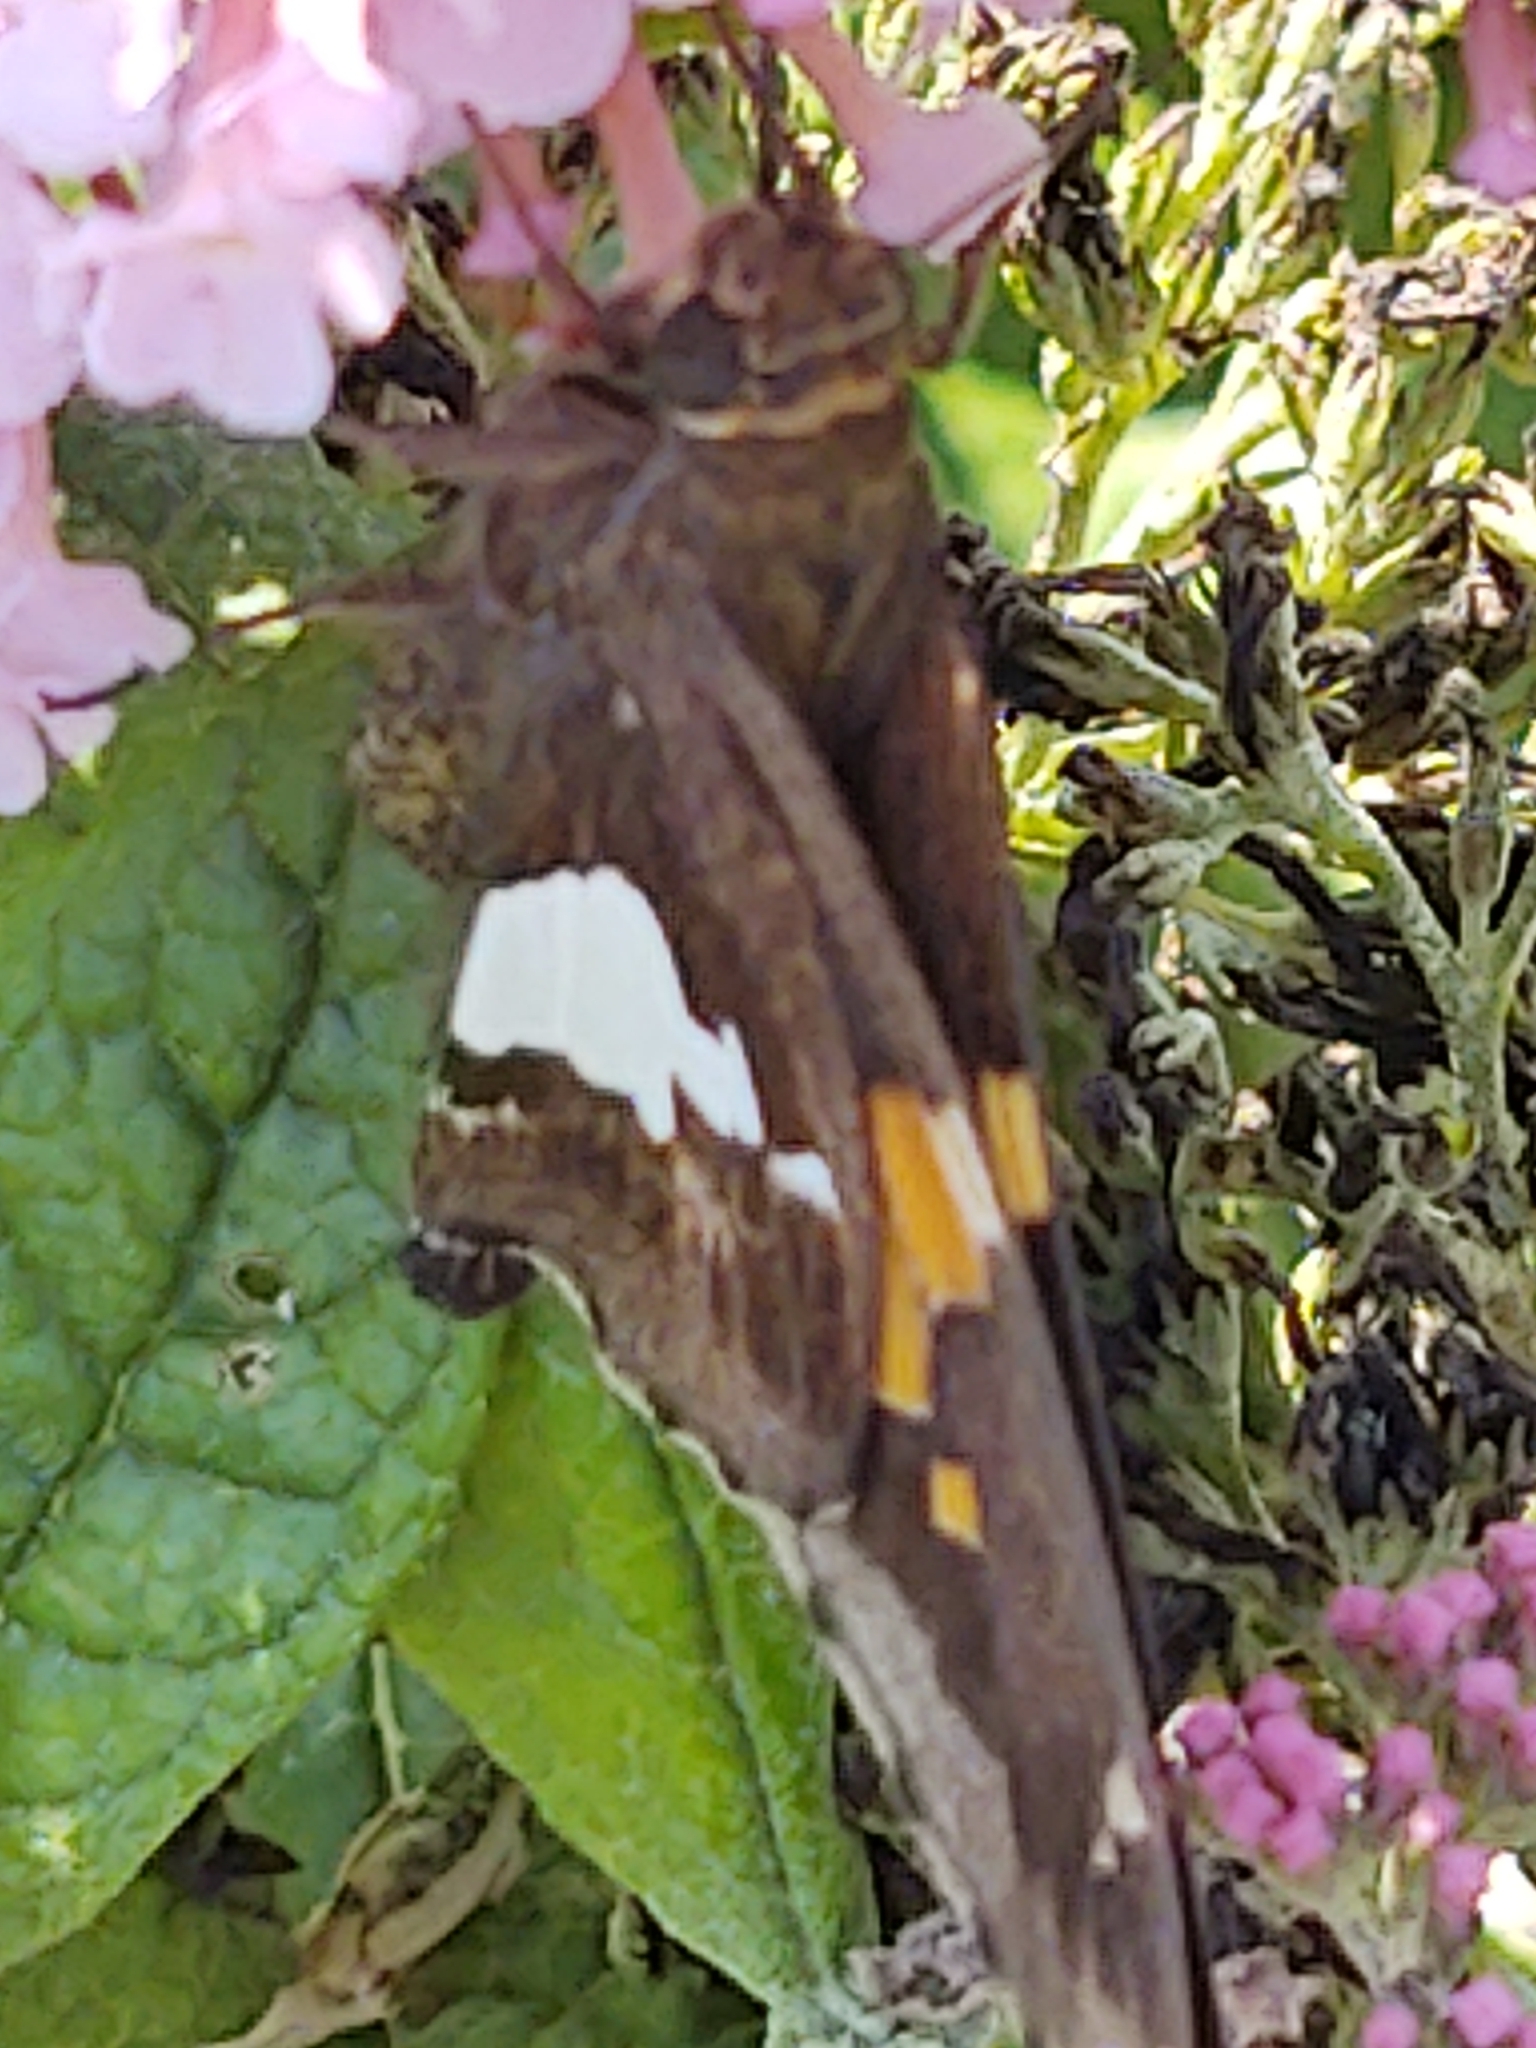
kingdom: Animalia
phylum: Arthropoda
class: Insecta
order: Lepidoptera
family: Hesperiidae
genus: Epargyreus
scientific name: Epargyreus clarus
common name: Silver-spotted skipper
